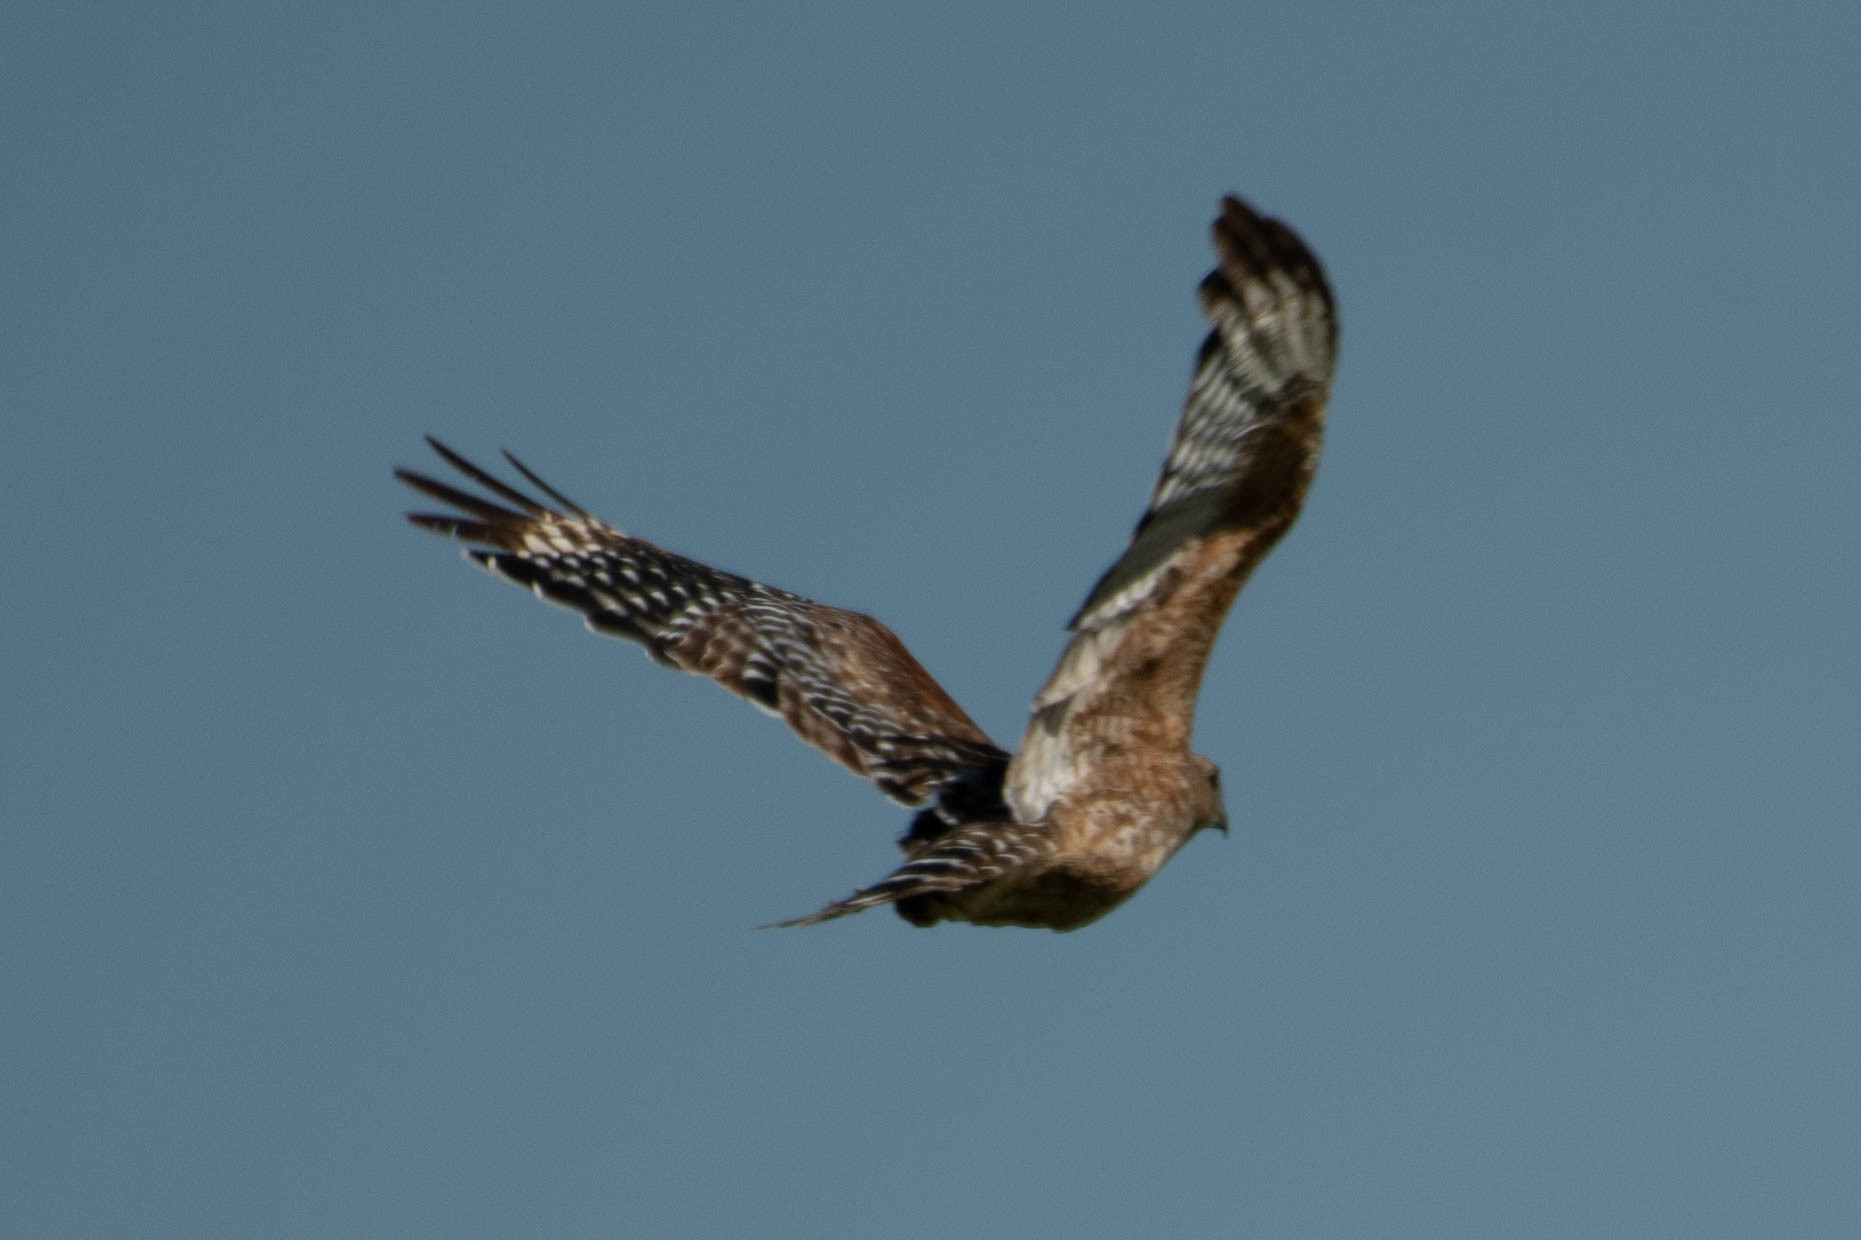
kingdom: Animalia
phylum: Chordata
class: Aves
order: Accipitriformes
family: Accipitridae
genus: Buteo
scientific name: Buteo lineatus
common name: Red-shouldered hawk
